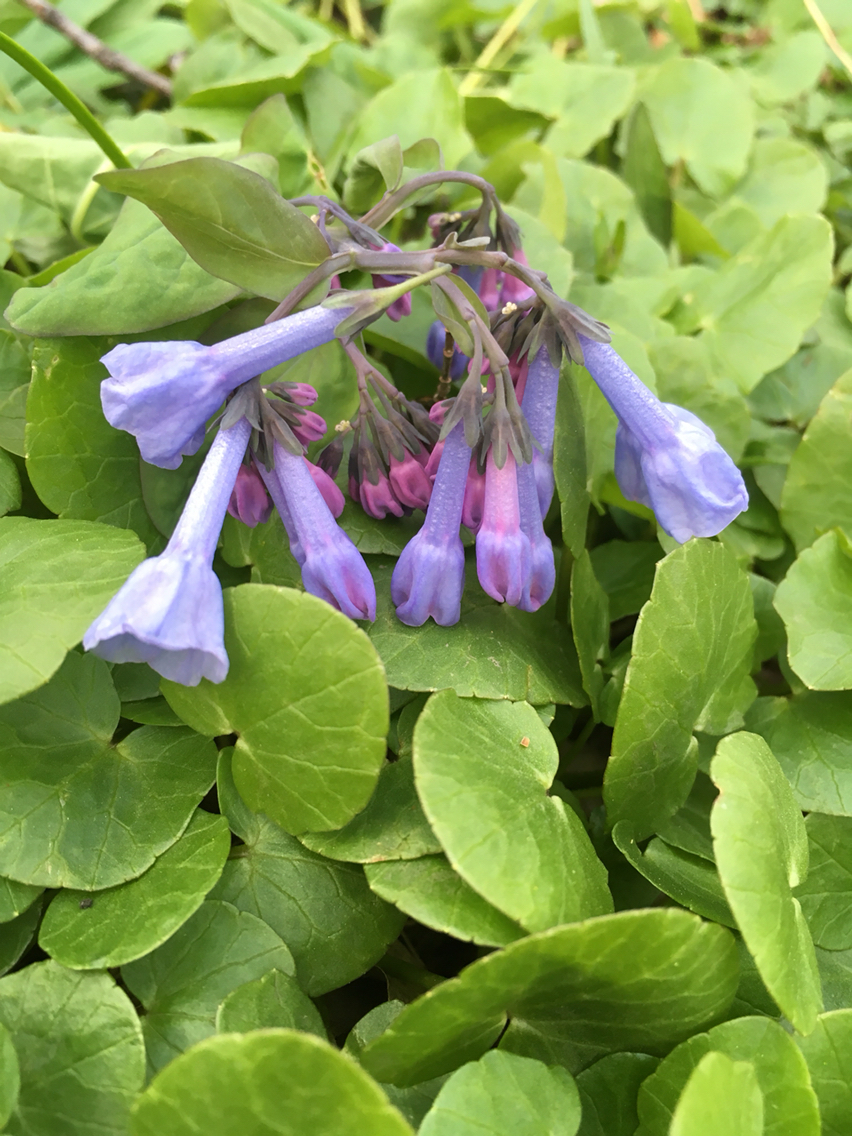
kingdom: Plantae
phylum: Tracheophyta
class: Magnoliopsida
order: Boraginales
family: Boraginaceae
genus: Mertensia
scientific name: Mertensia virginica
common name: Virginia bluebells
